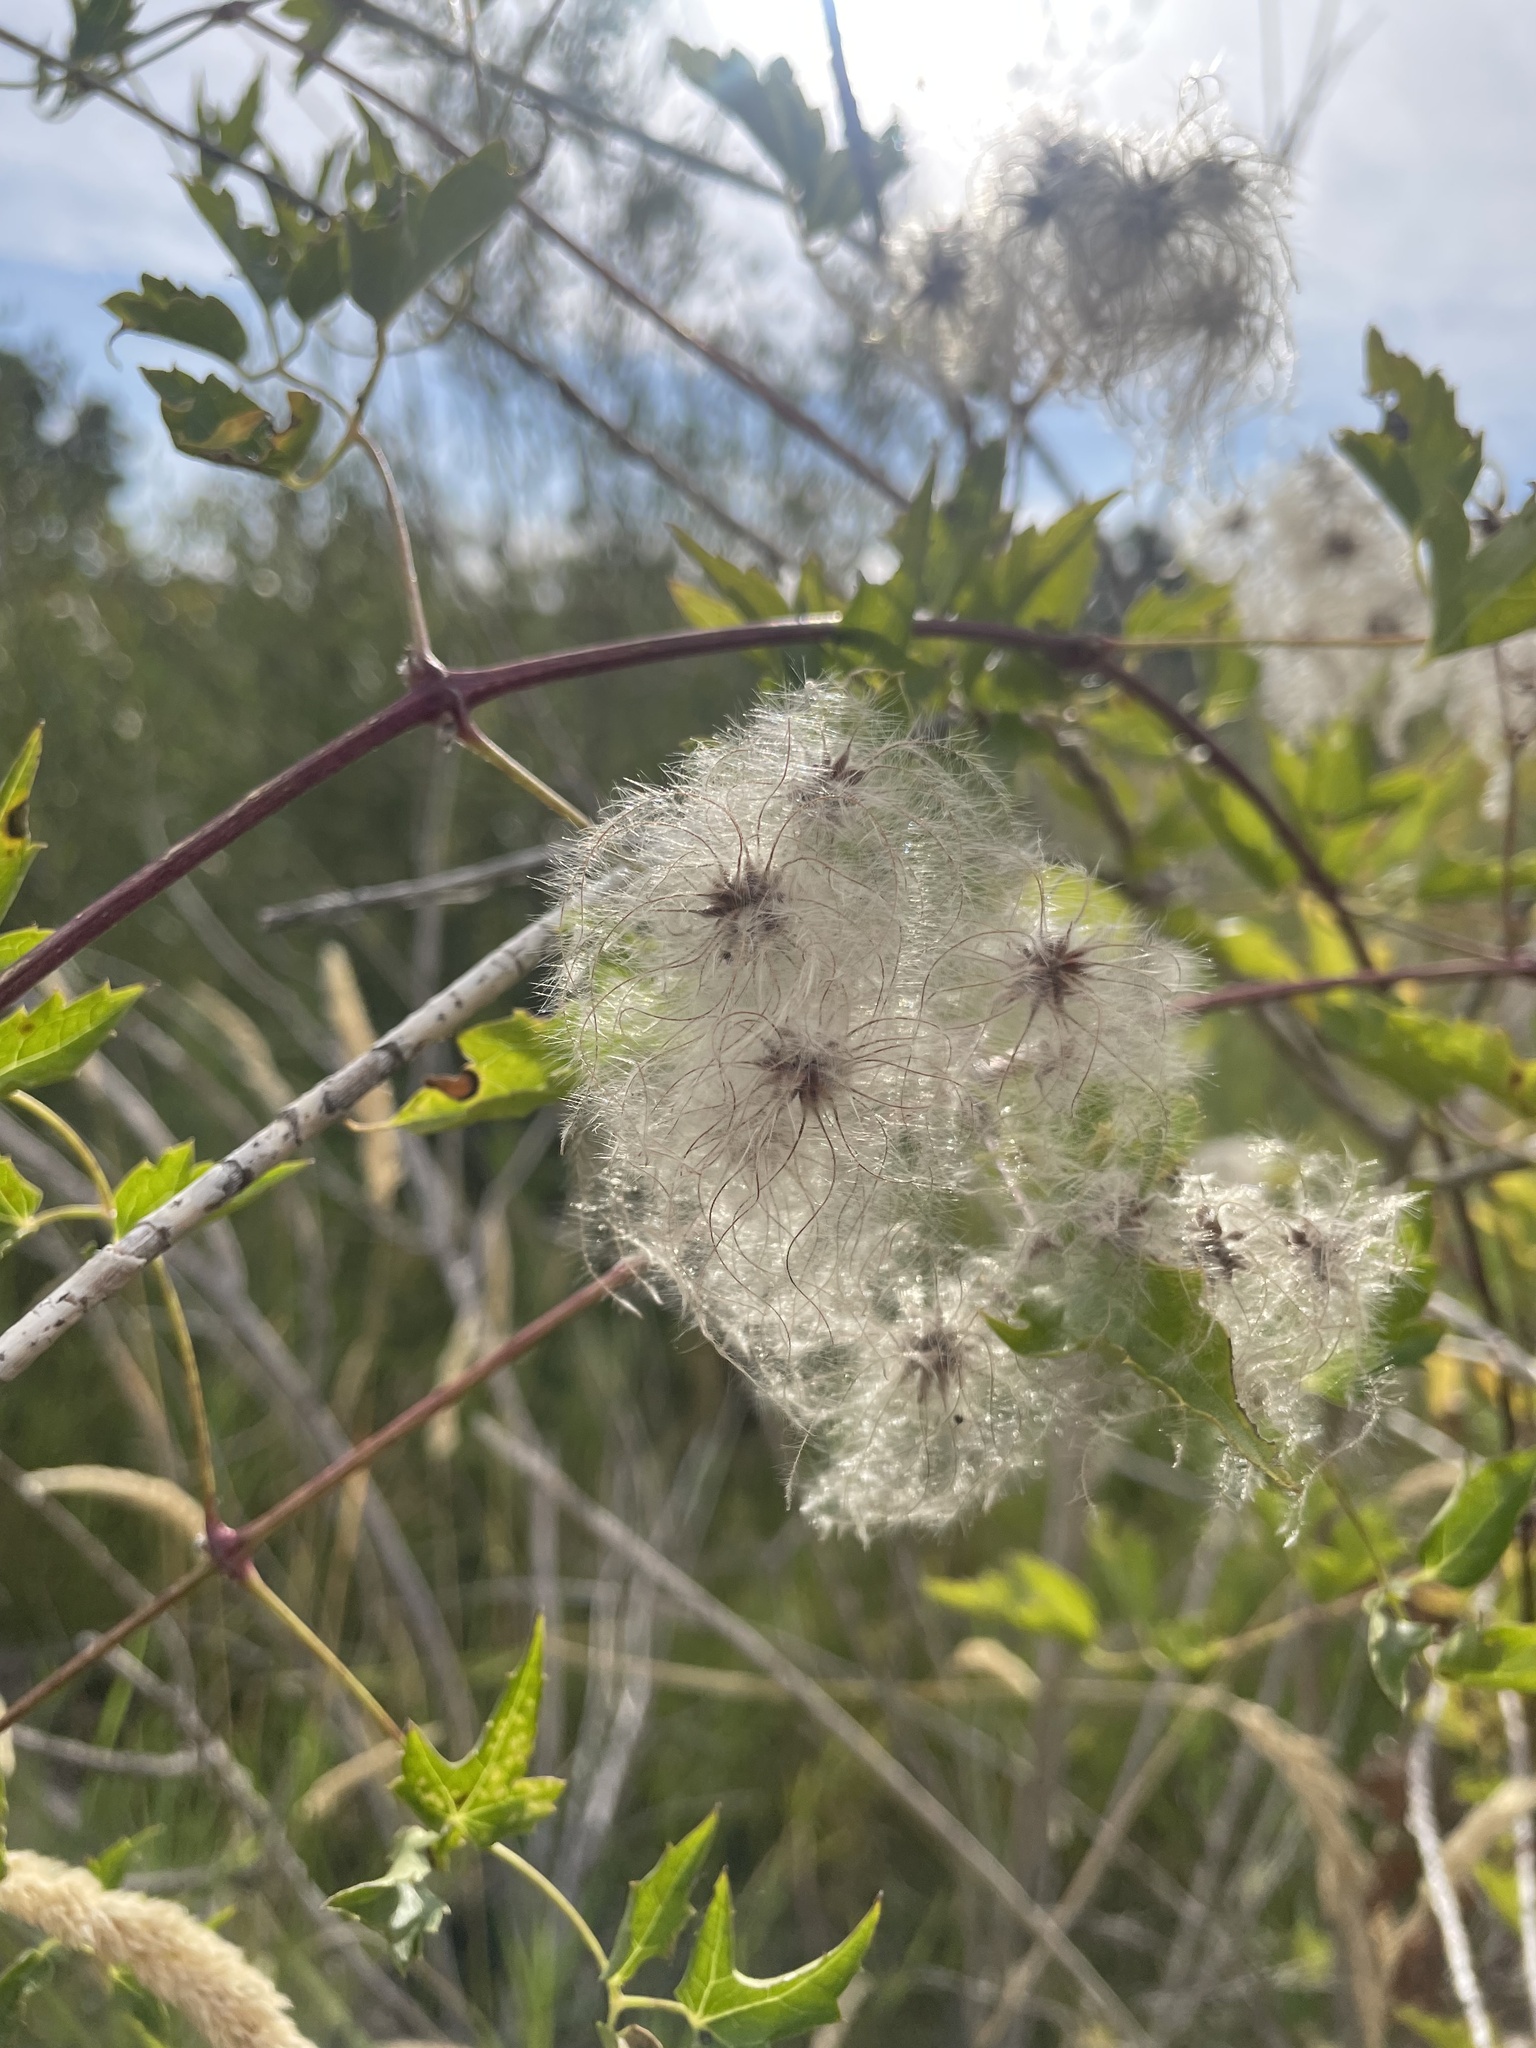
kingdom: Plantae
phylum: Tracheophyta
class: Magnoliopsida
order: Ranunculales
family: Ranunculaceae
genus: Clematis
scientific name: Clematis ligusticifolia
